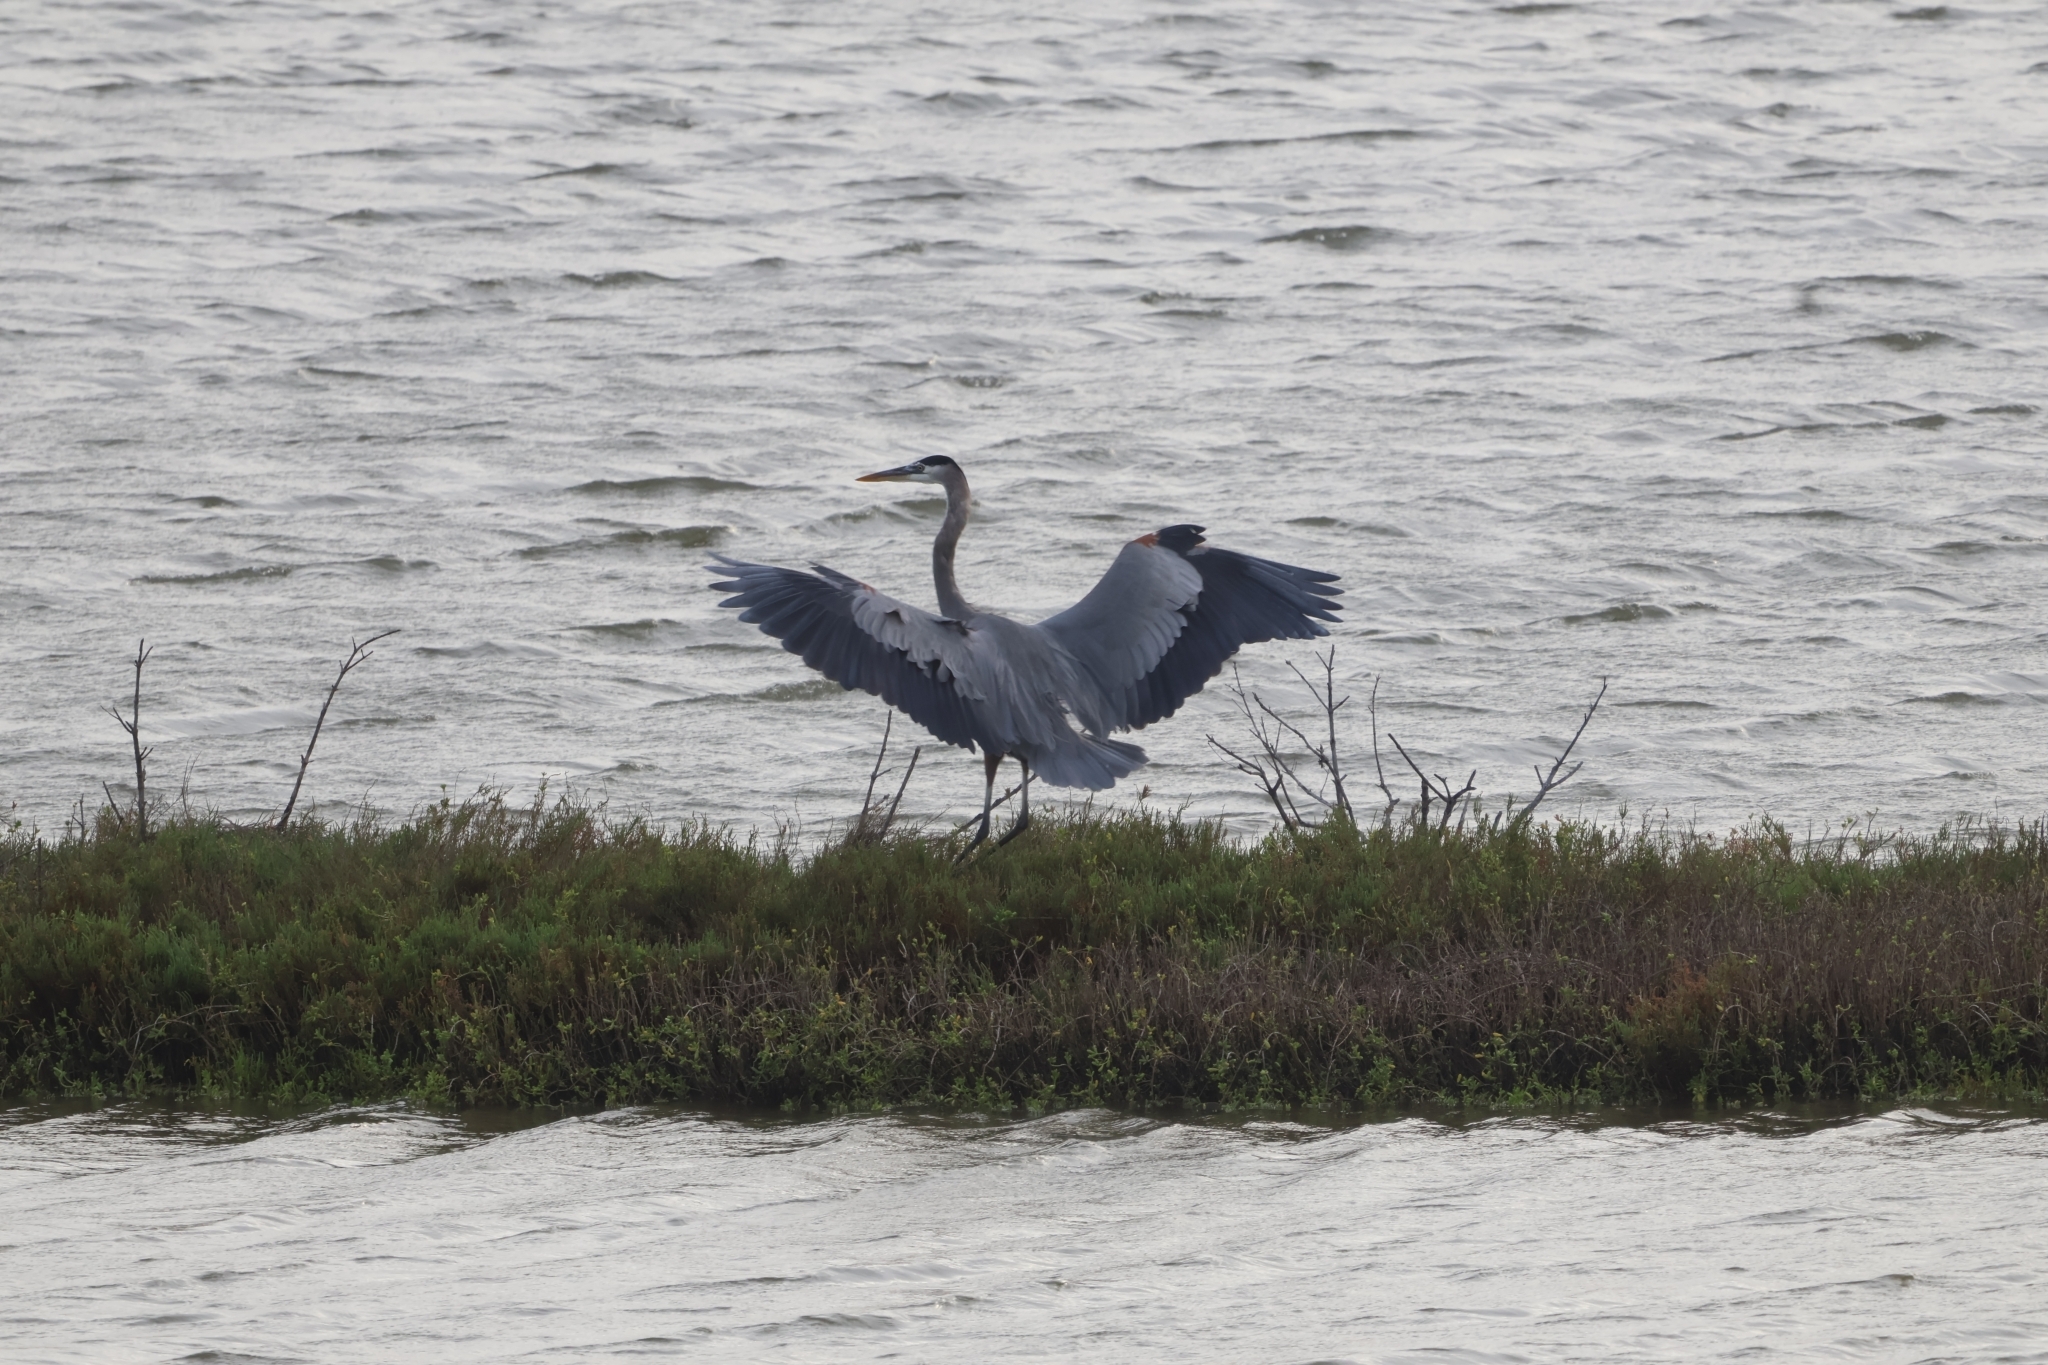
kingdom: Animalia
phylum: Chordata
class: Aves
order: Pelecaniformes
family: Ardeidae
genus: Ardea
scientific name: Ardea herodias
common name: Great blue heron
